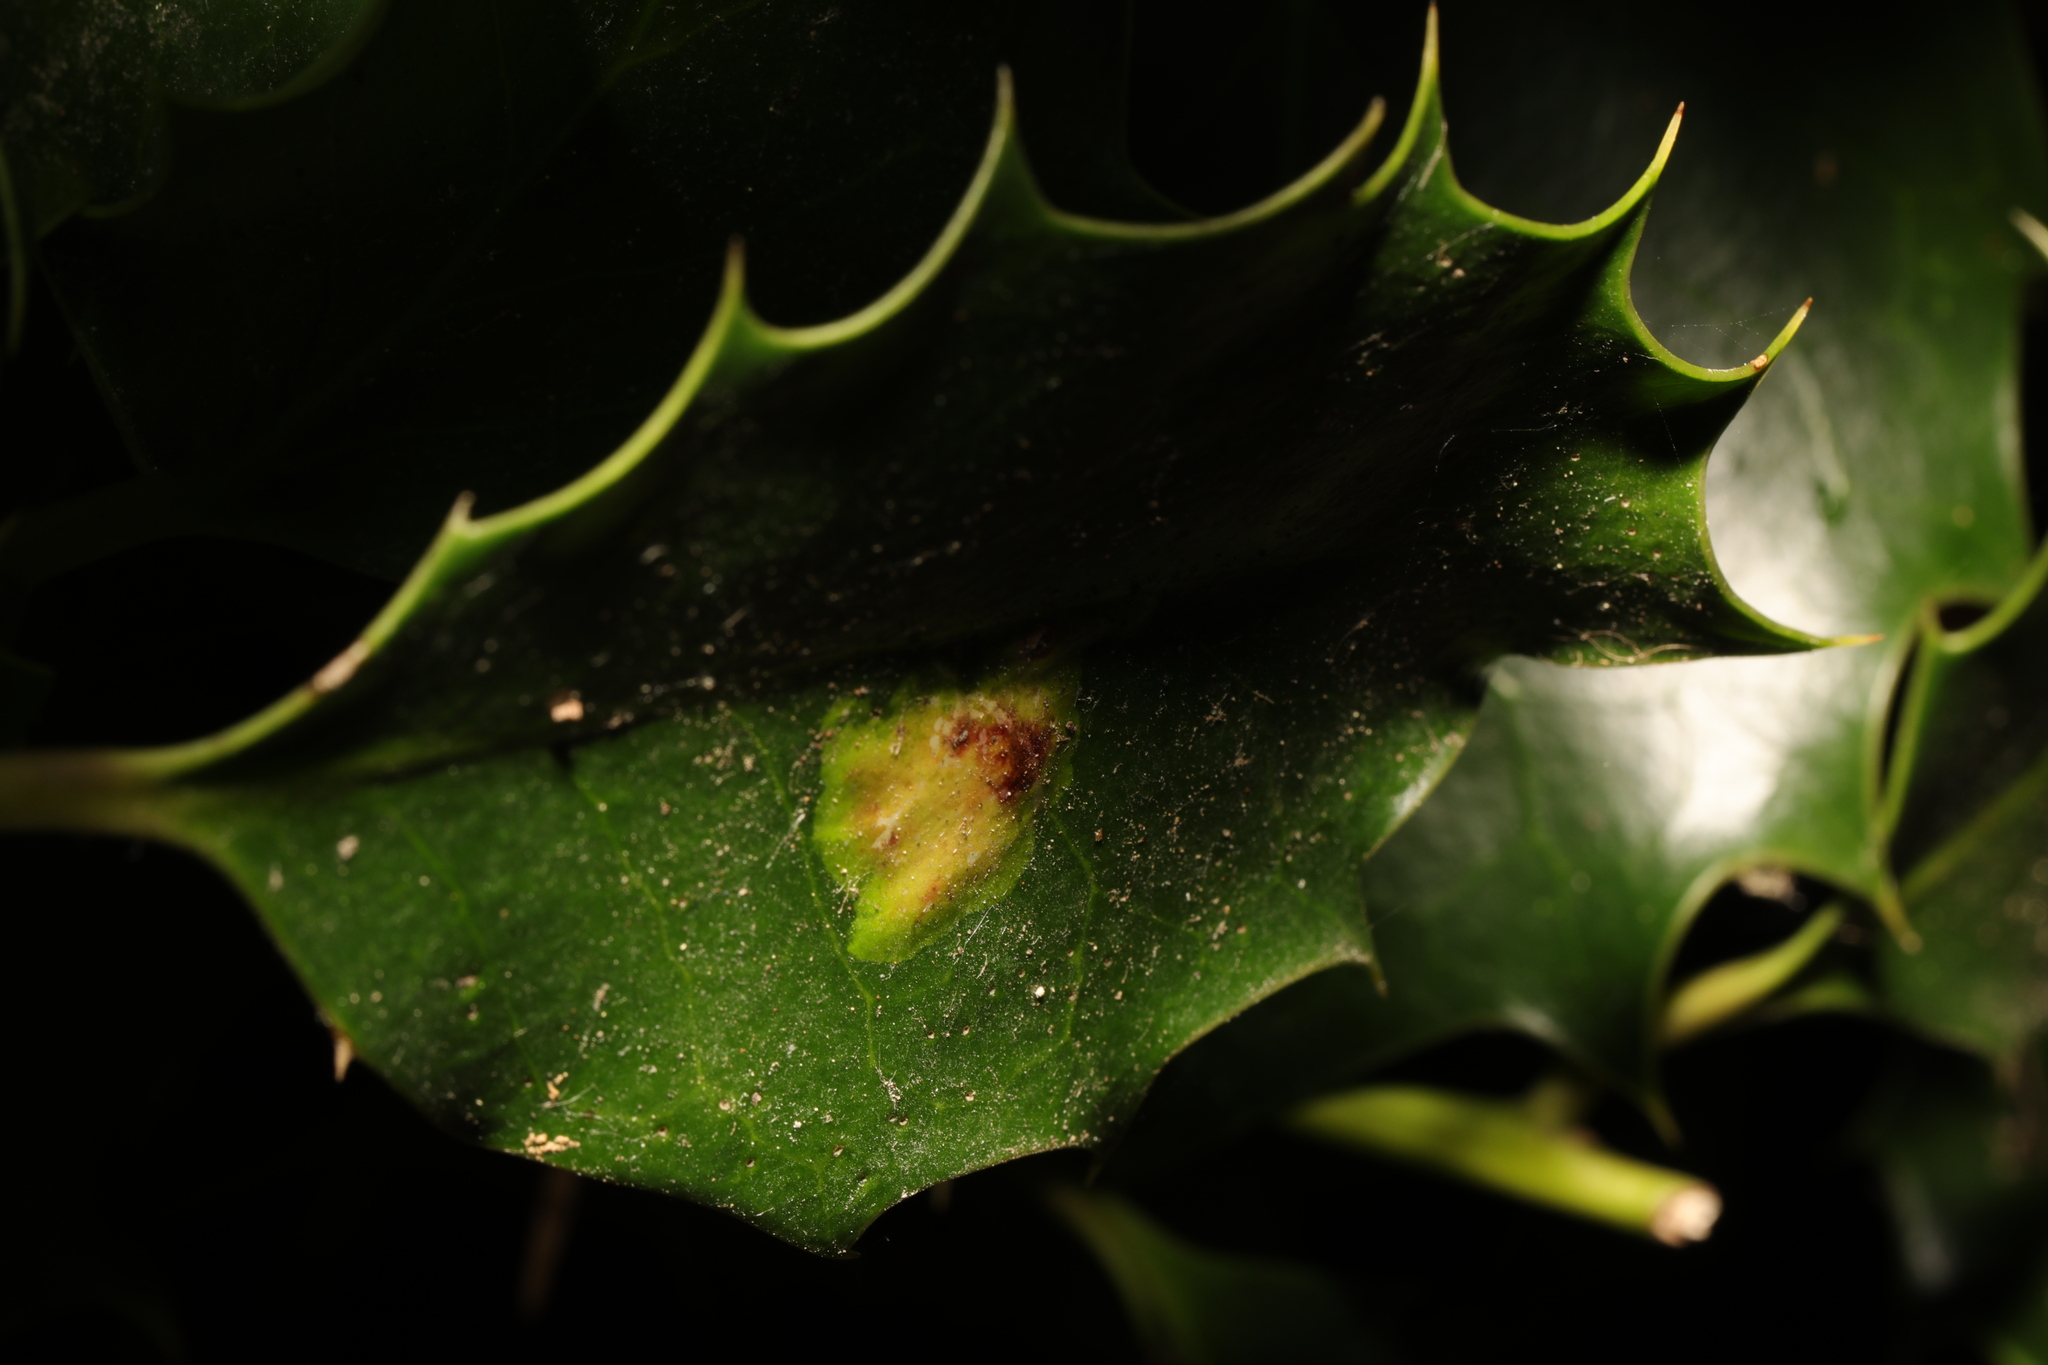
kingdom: Animalia
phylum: Arthropoda
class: Insecta
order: Diptera
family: Agromyzidae
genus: Phytomyza
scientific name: Phytomyza ilicis
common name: Holly leafminer
